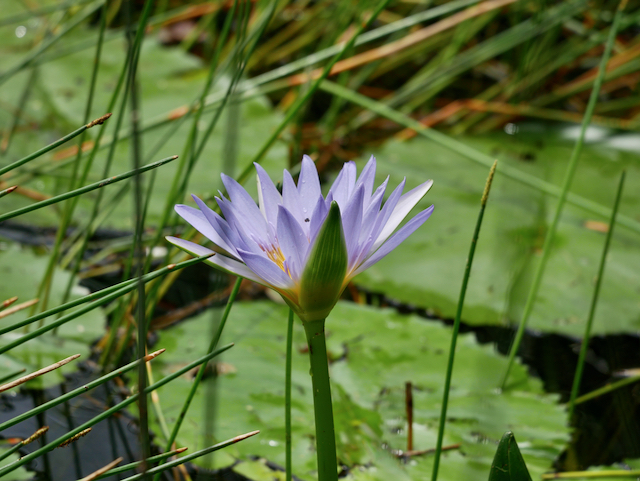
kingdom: Plantae
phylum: Tracheophyta
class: Magnoliopsida
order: Nymphaeales
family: Nymphaeaceae
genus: Nymphaea
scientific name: Nymphaea nouchali
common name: Blue lotus
